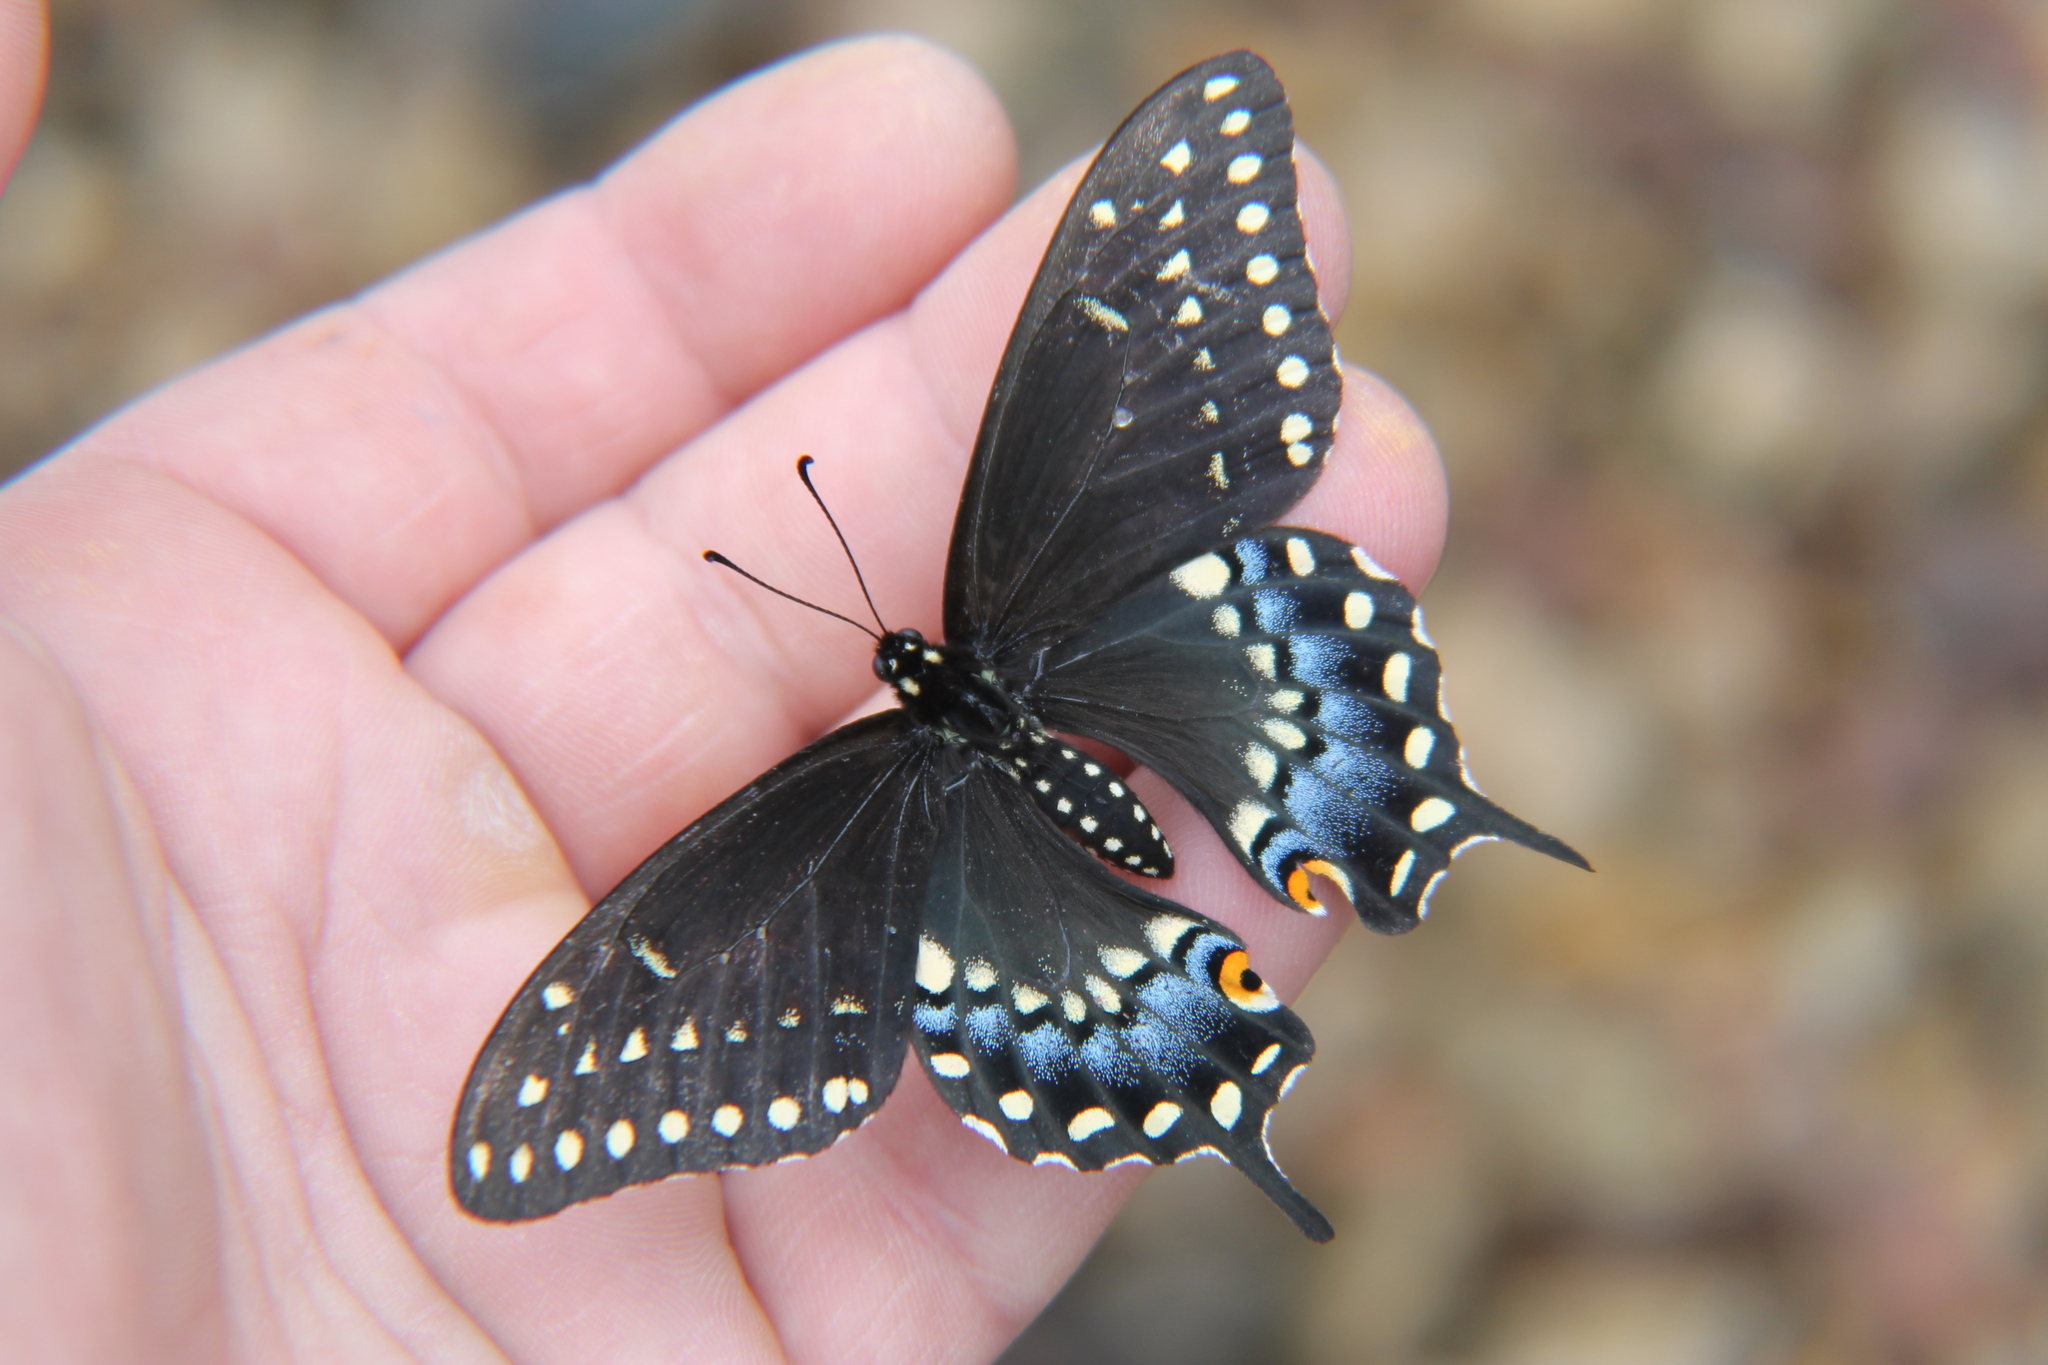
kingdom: Animalia
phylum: Arthropoda
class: Insecta
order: Lepidoptera
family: Papilionidae
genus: Papilio
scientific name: Papilio polyxenes
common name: Black swallowtail
